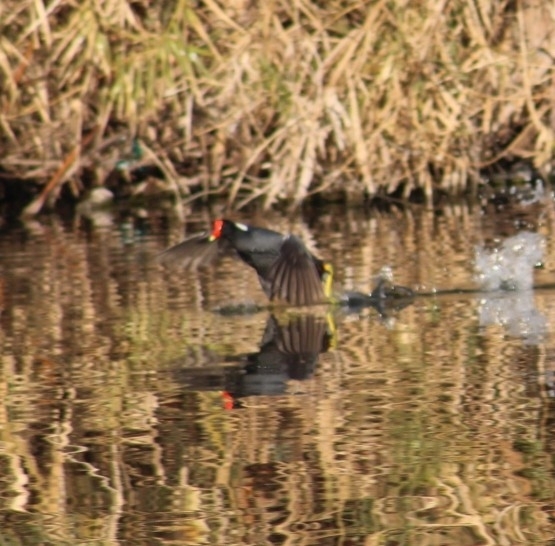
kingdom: Animalia
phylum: Chordata
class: Aves
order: Gruiformes
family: Rallidae
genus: Gallinula
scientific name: Gallinula chloropus
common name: Common moorhen
